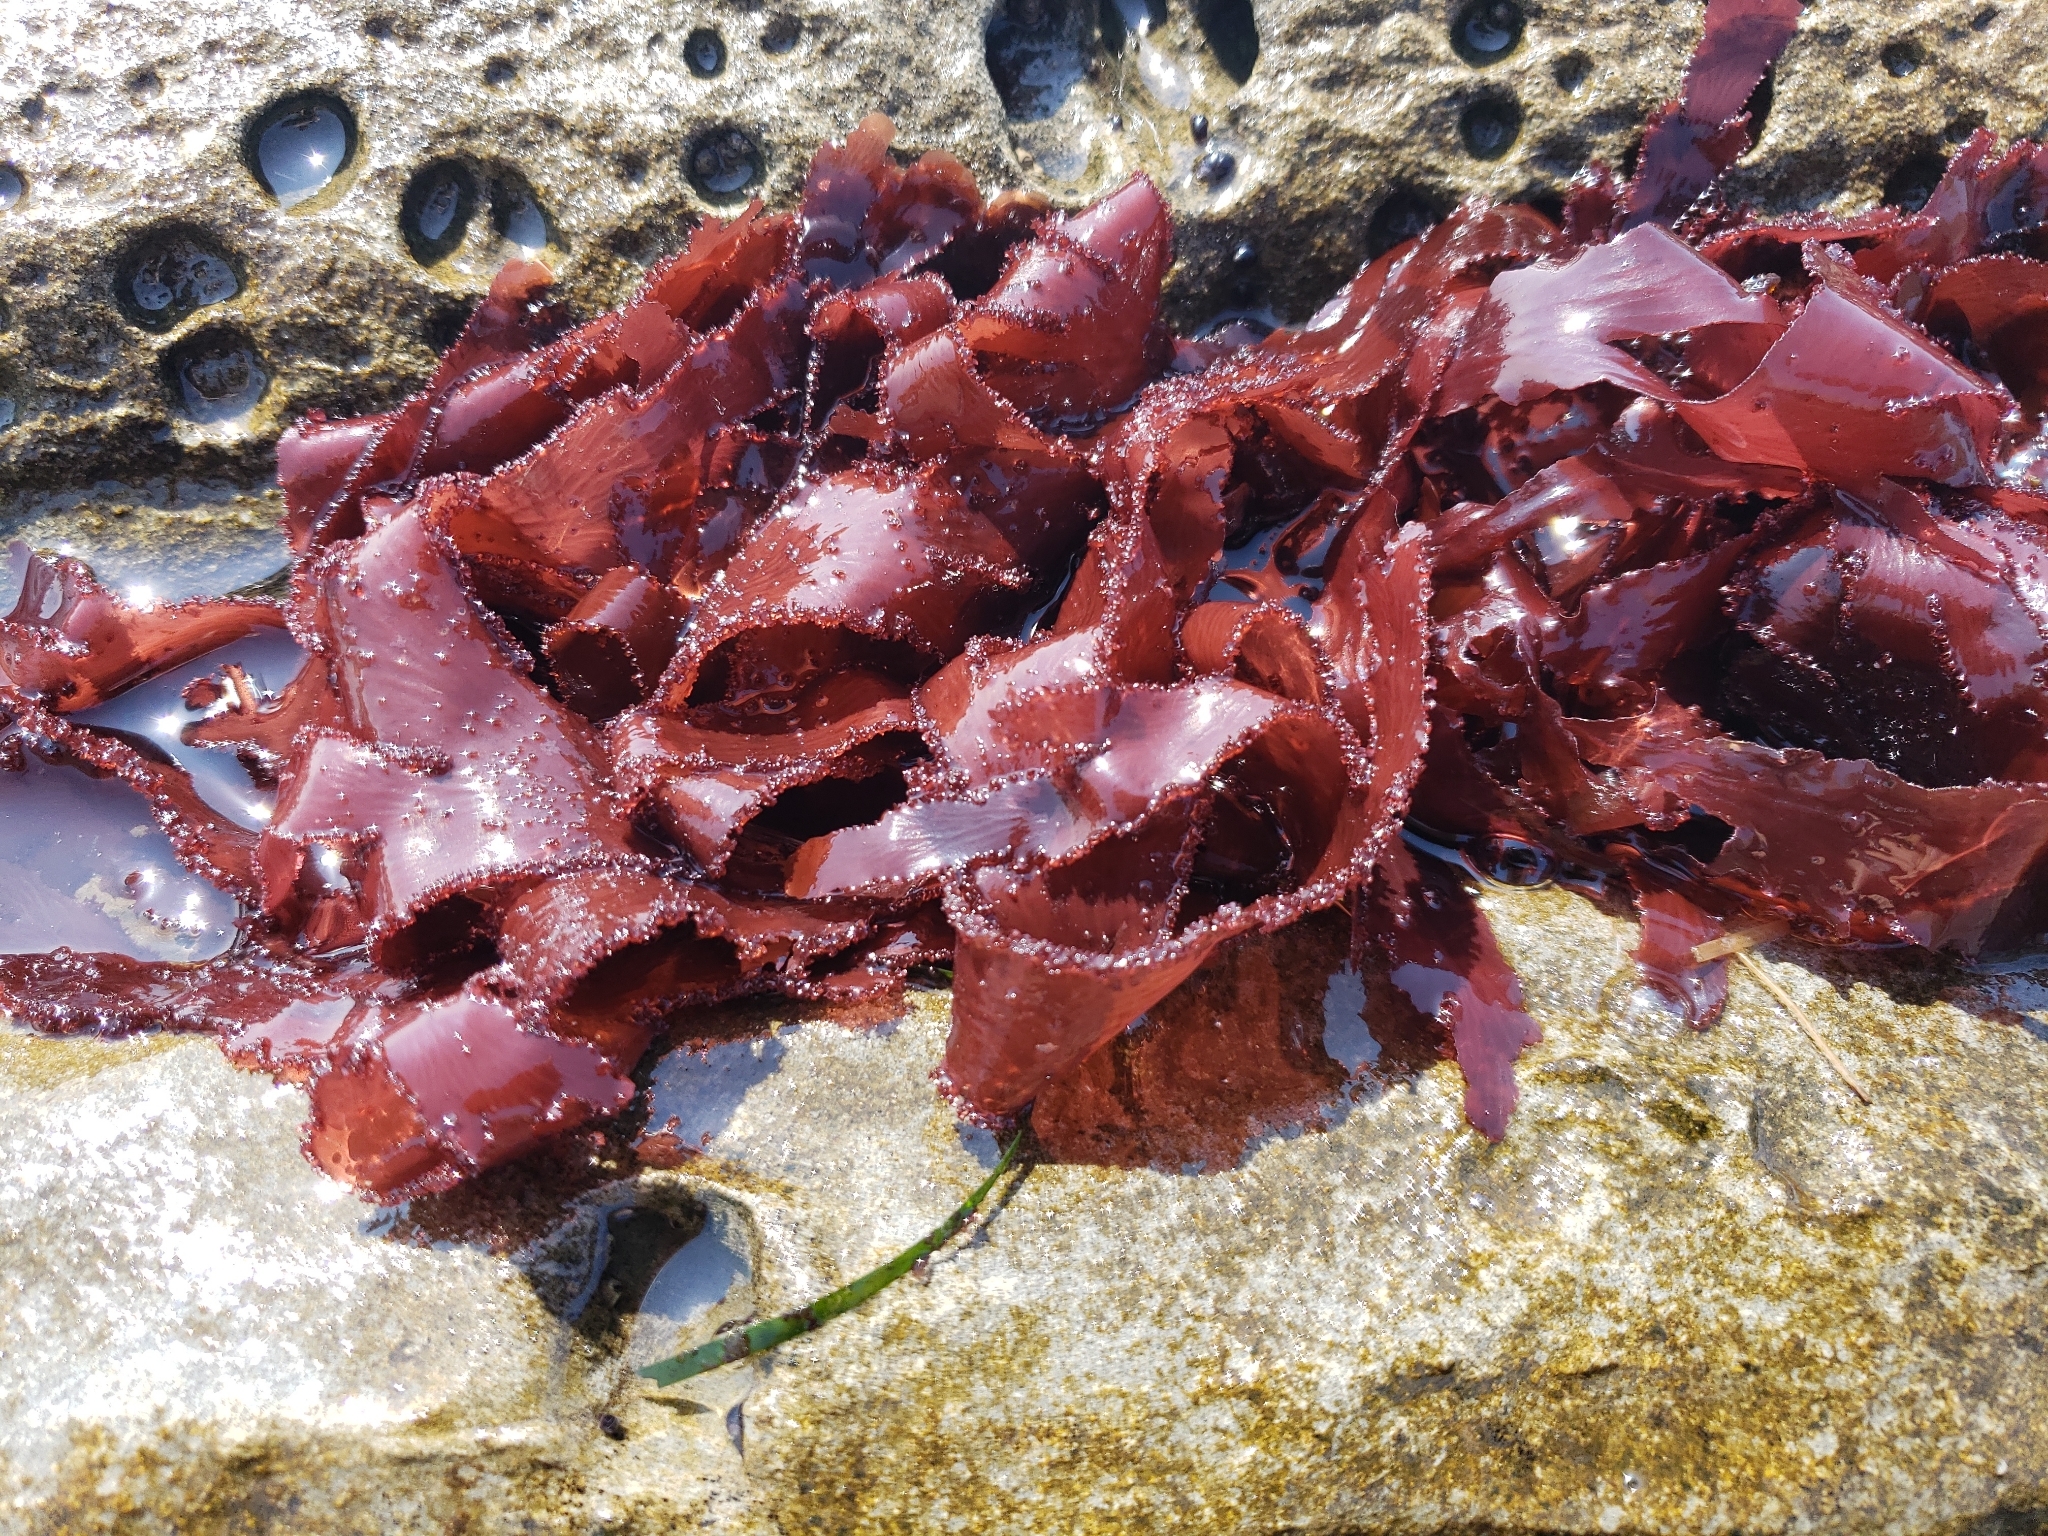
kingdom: Plantae
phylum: Rhodophyta
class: Florideophyceae
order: Ceramiales
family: Delesseriaceae
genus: Cryptopleura
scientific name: Cryptopleura ruprechtiana
